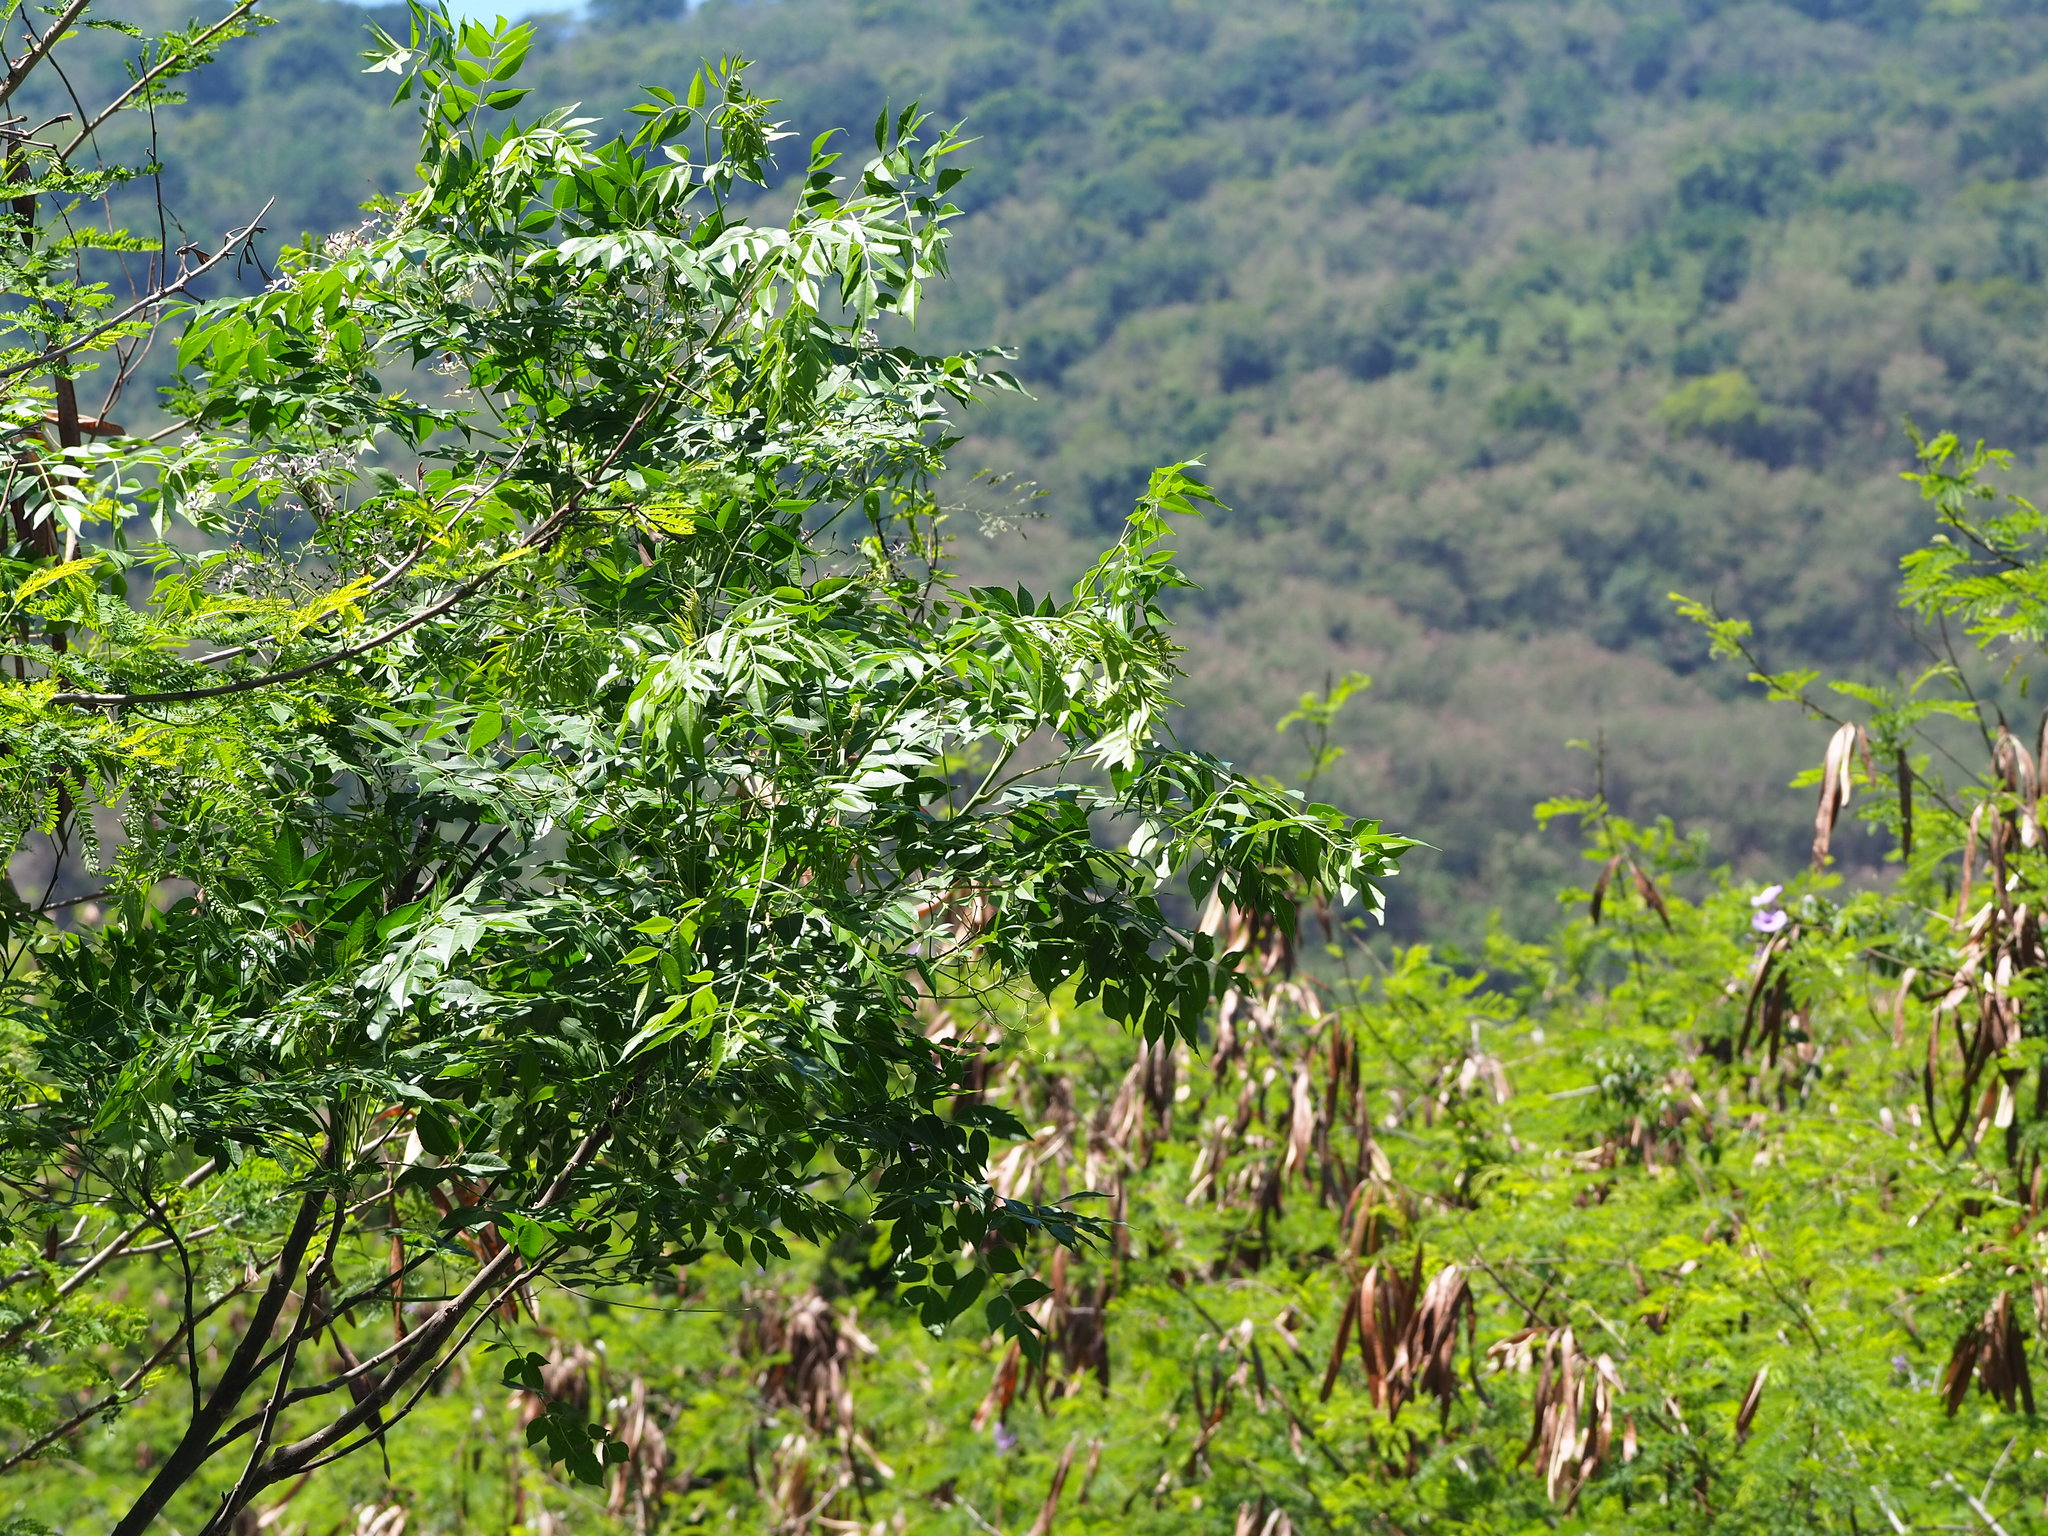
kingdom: Plantae
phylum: Tracheophyta
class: Magnoliopsida
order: Sapindales
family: Meliaceae
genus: Melia
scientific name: Melia azedarach
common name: Chinaberrytree
